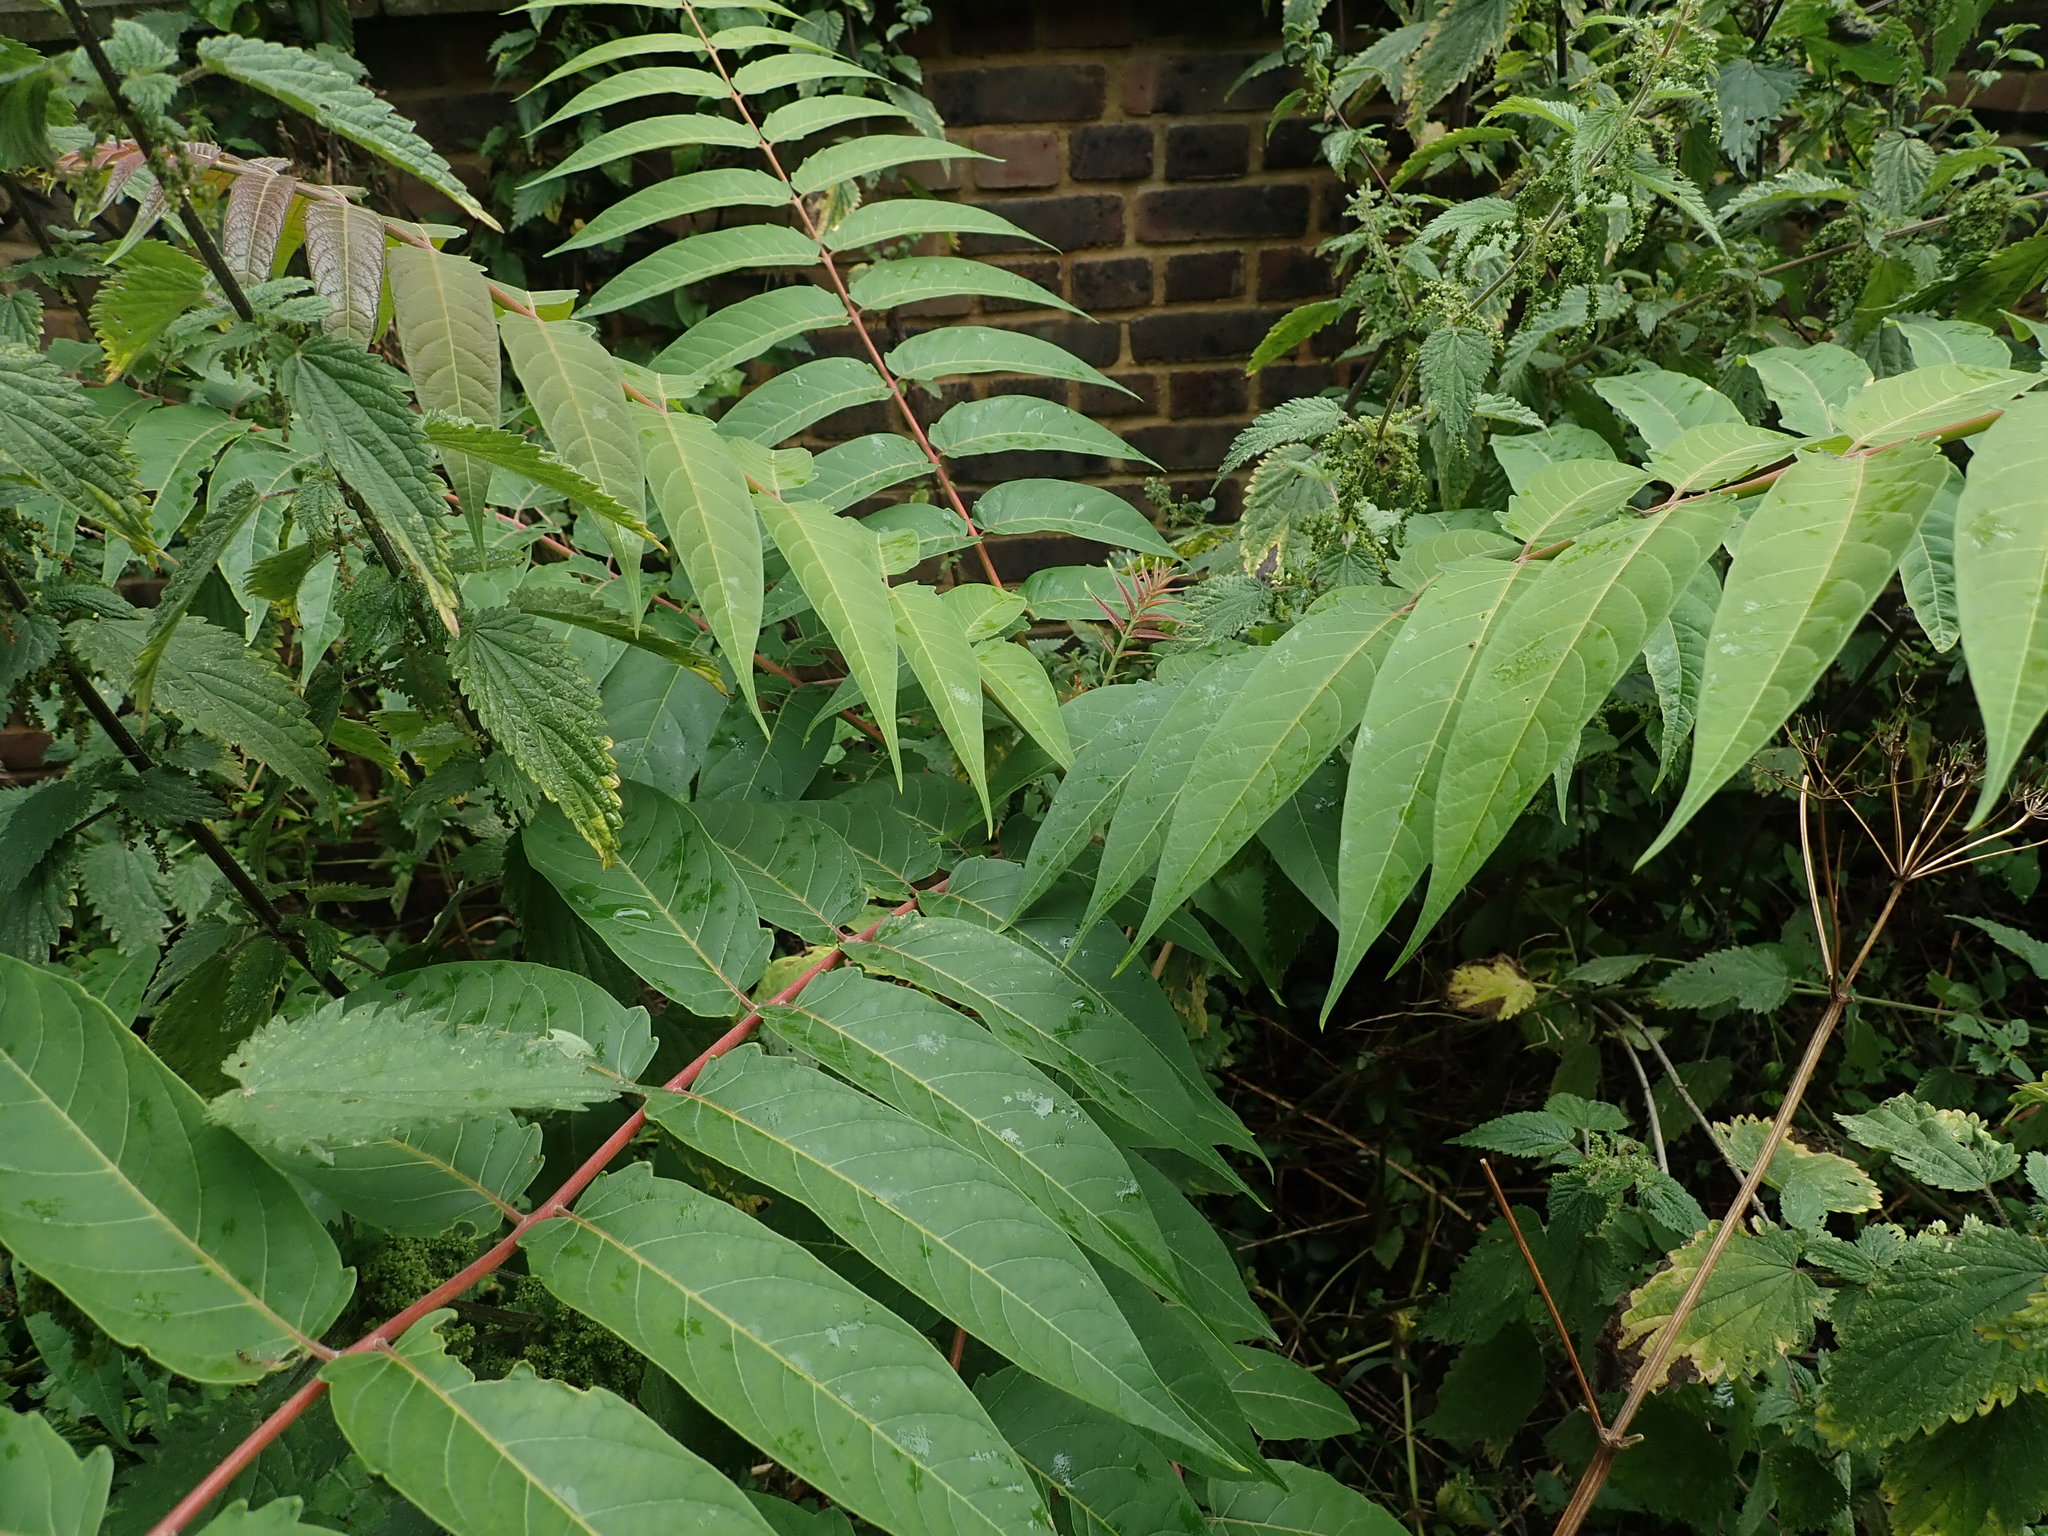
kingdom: Plantae
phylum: Tracheophyta
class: Magnoliopsida
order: Sapindales
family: Simaroubaceae
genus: Ailanthus
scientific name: Ailanthus altissima
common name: Tree-of-heaven
